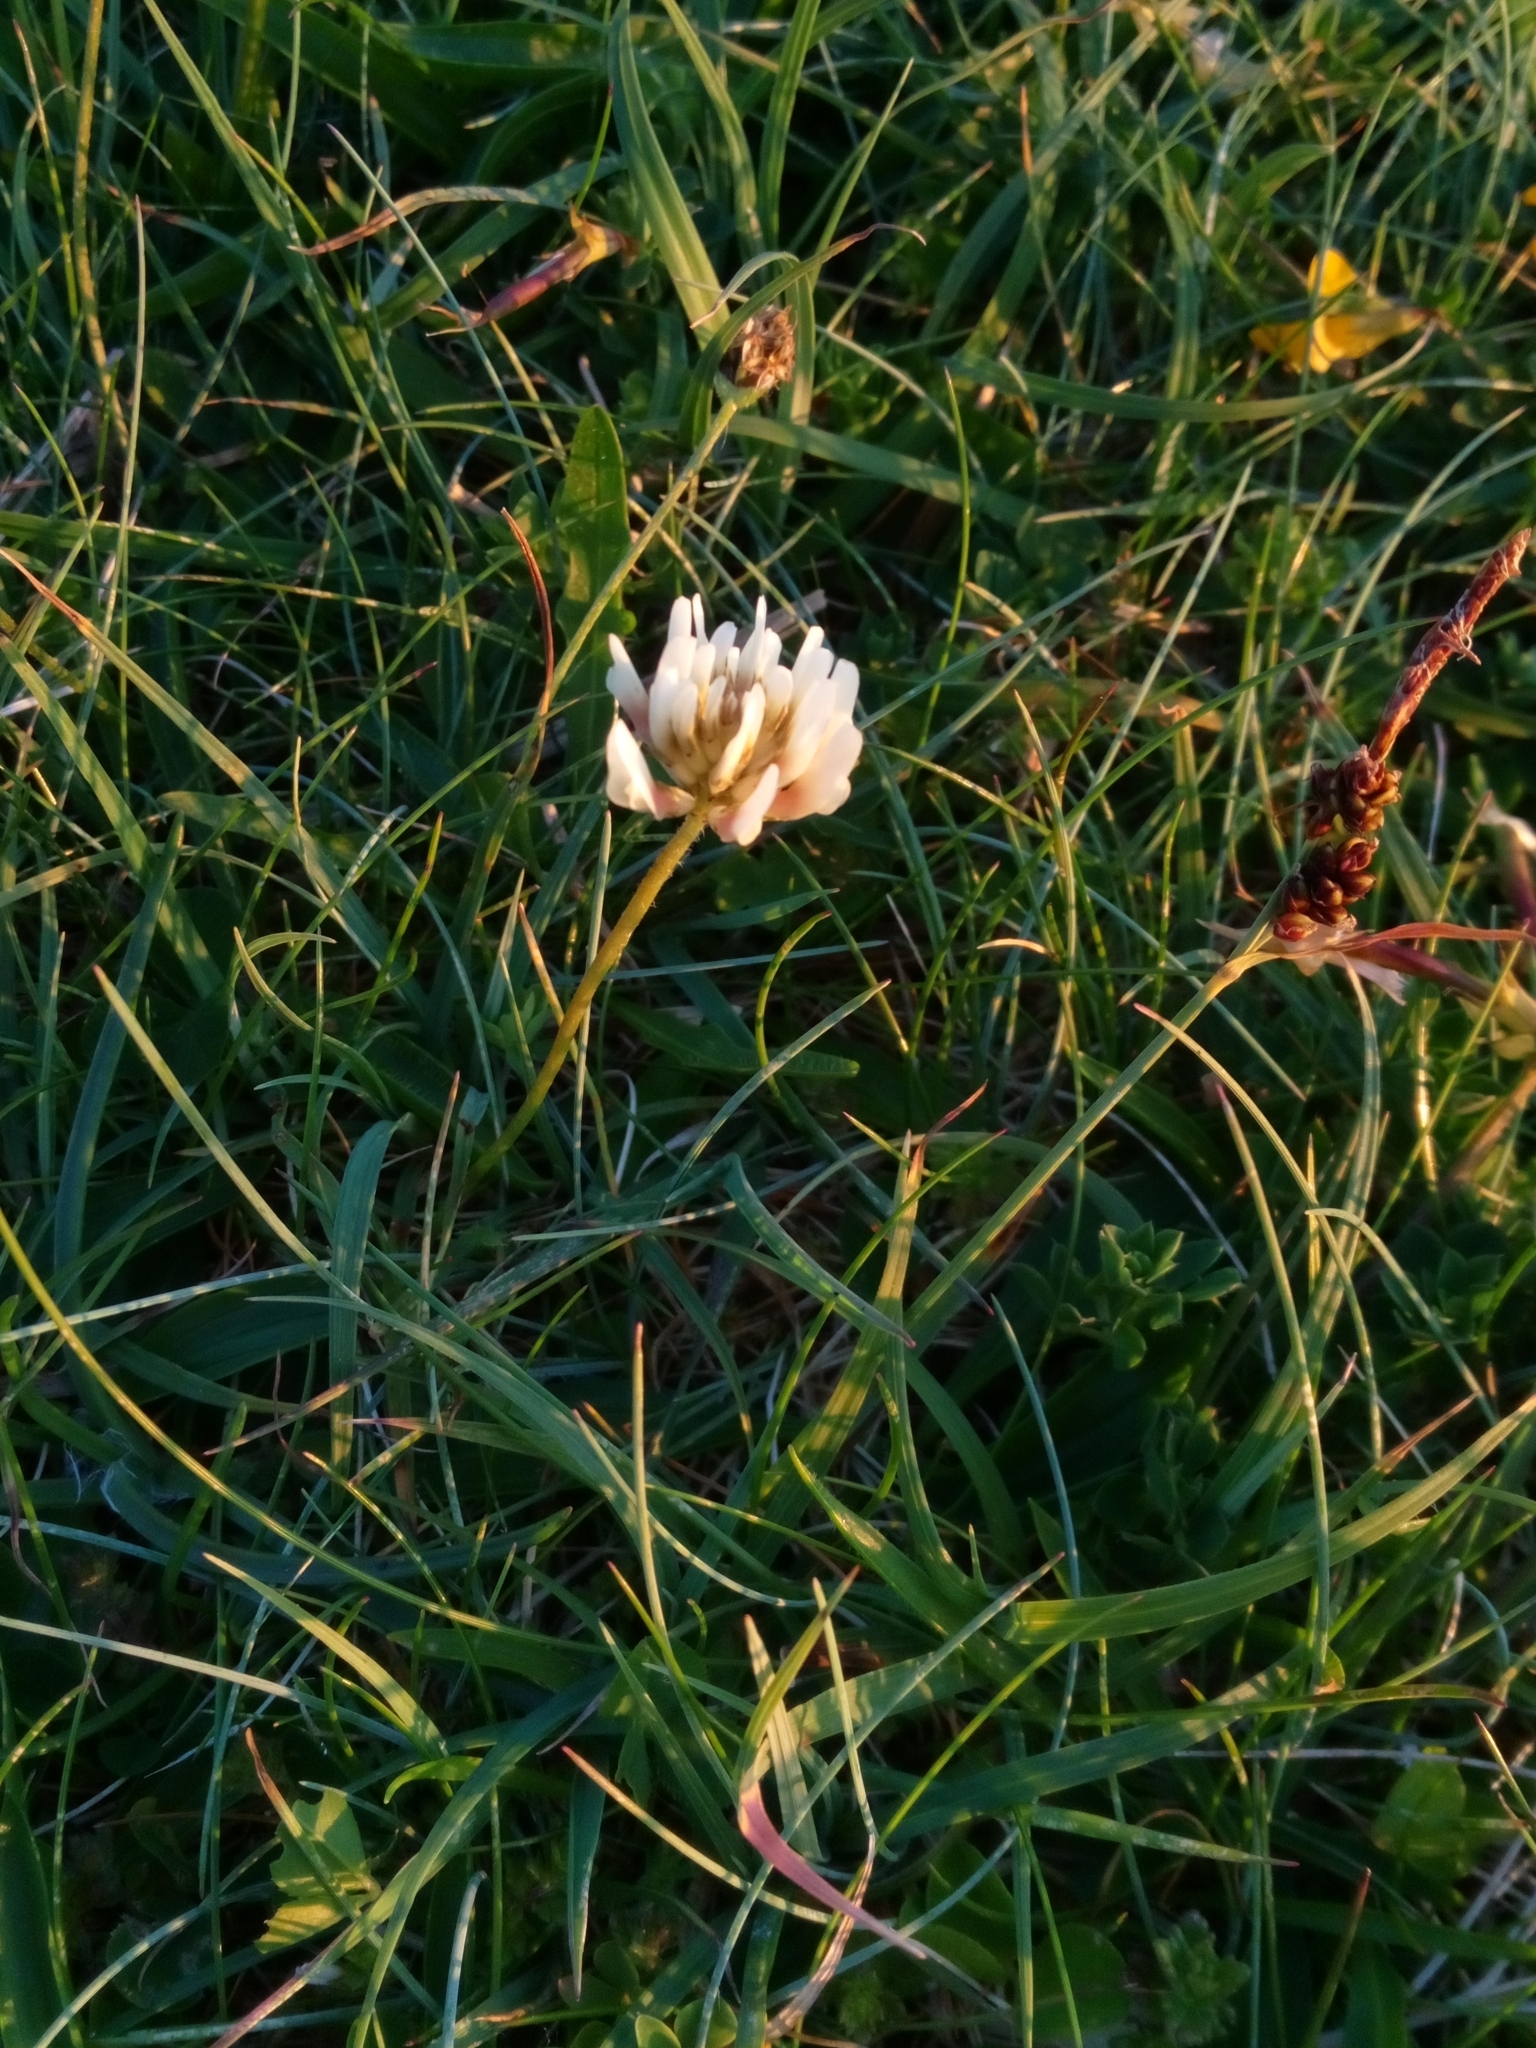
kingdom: Plantae
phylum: Tracheophyta
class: Magnoliopsida
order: Fabales
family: Fabaceae
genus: Trifolium
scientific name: Trifolium repens
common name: White clover
